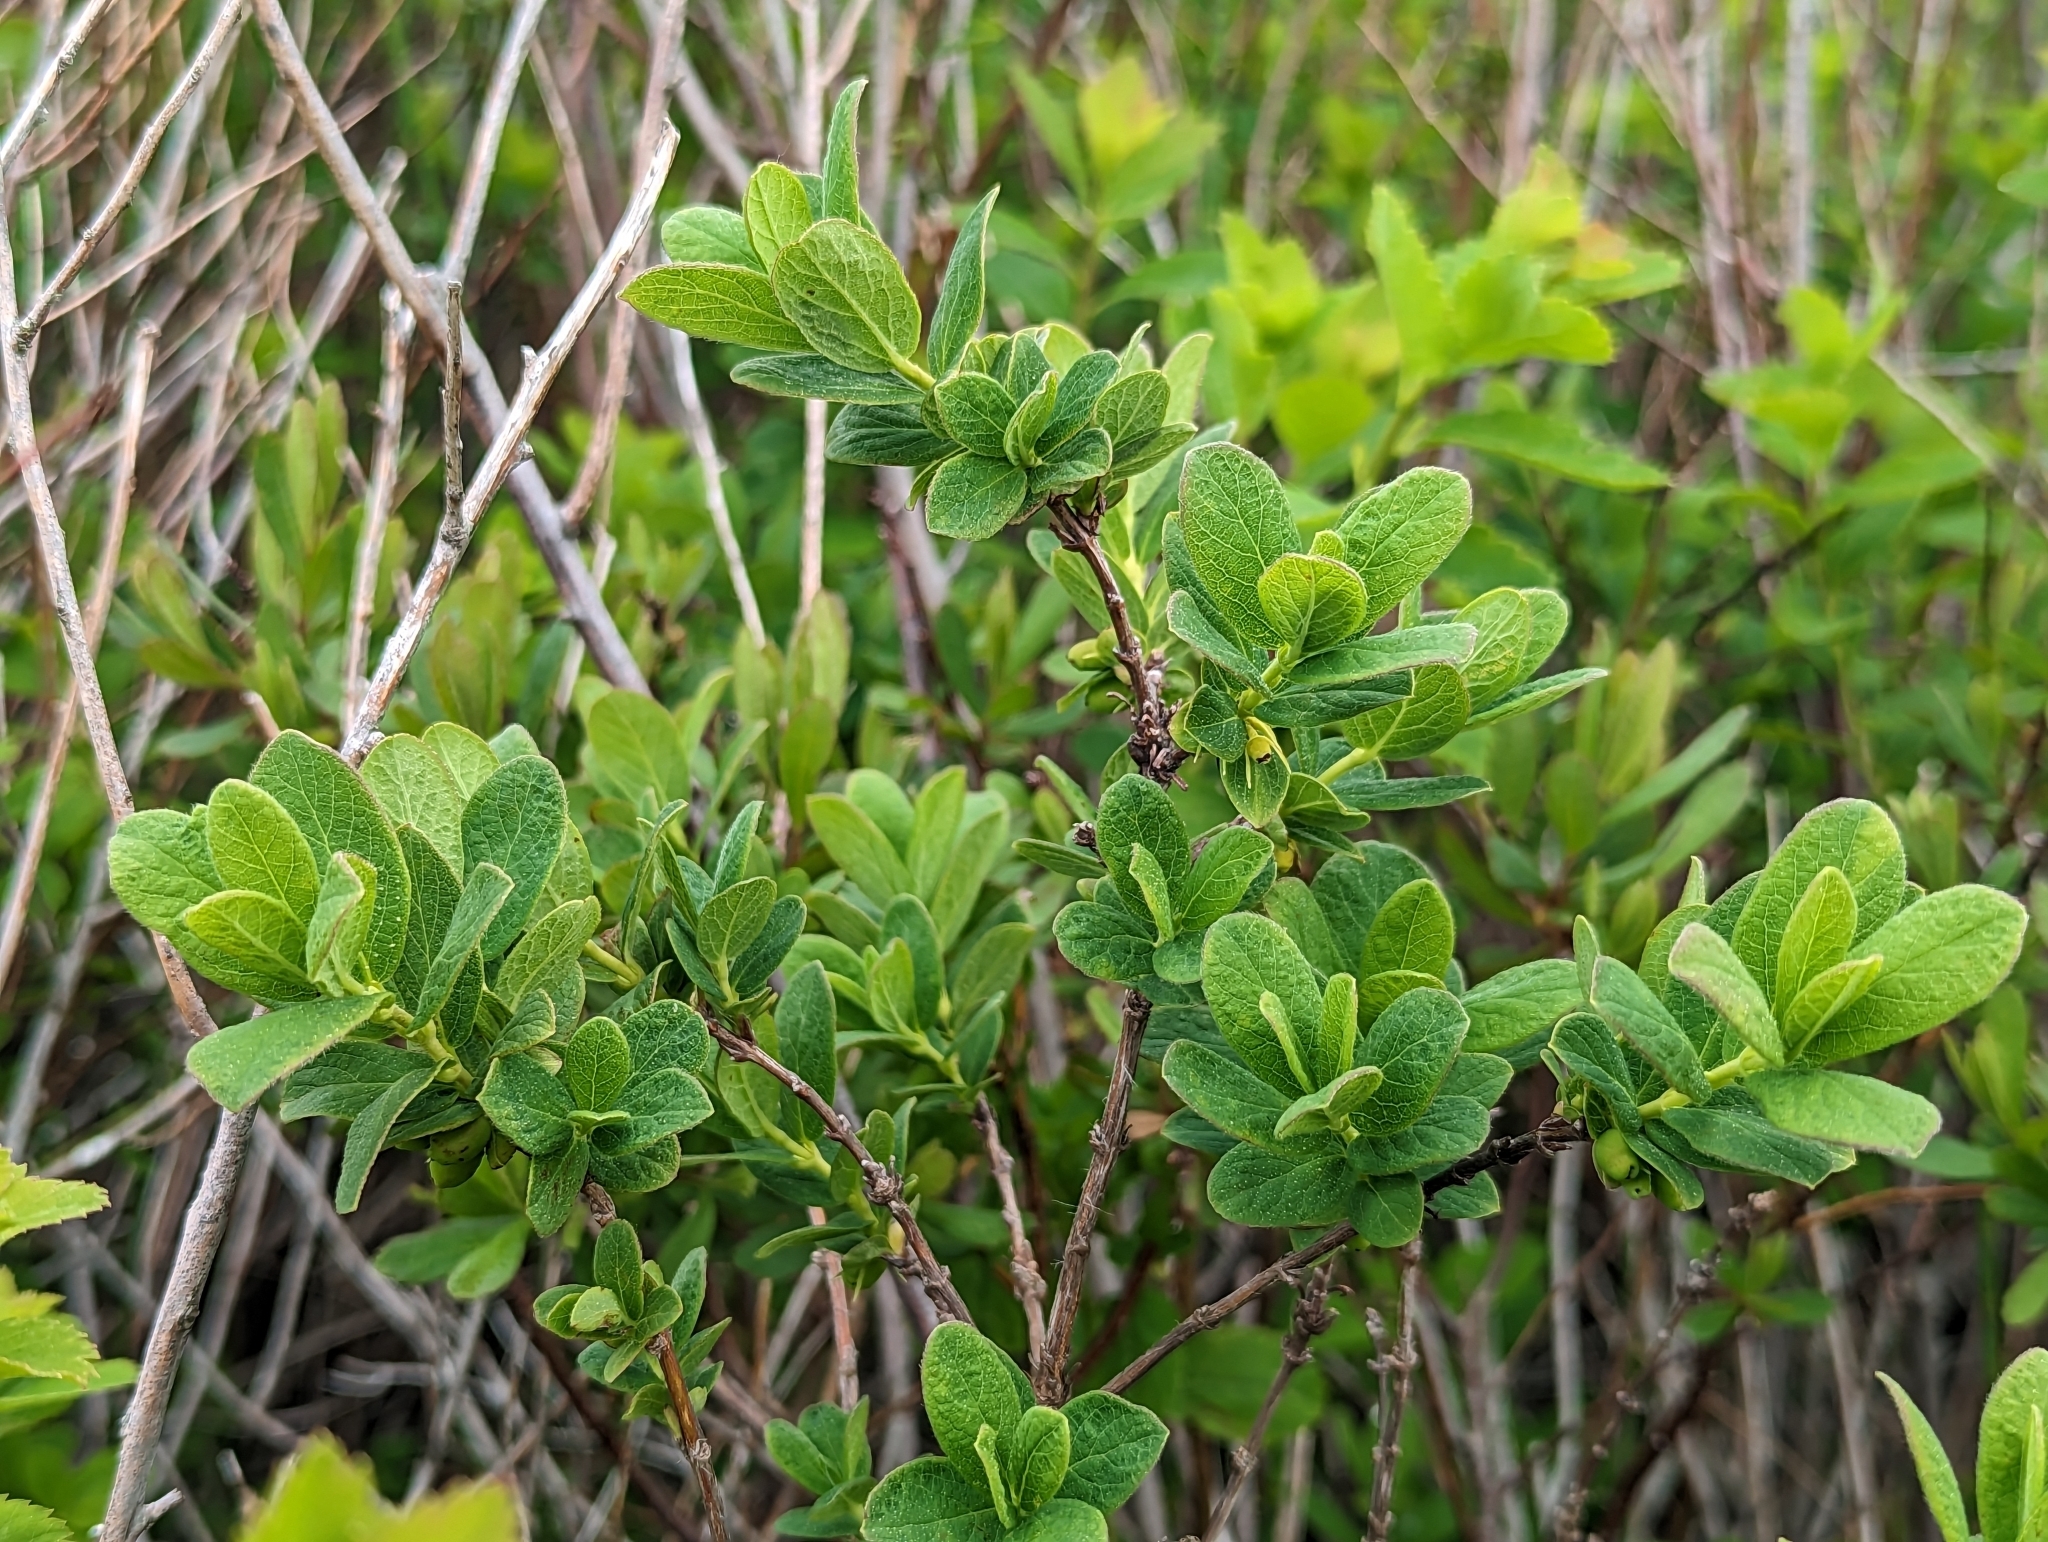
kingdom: Plantae
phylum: Tracheophyta
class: Magnoliopsida
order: Dipsacales
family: Caprifoliaceae
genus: Lonicera
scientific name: Lonicera villosa
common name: Mountain fly-honeysuckle
